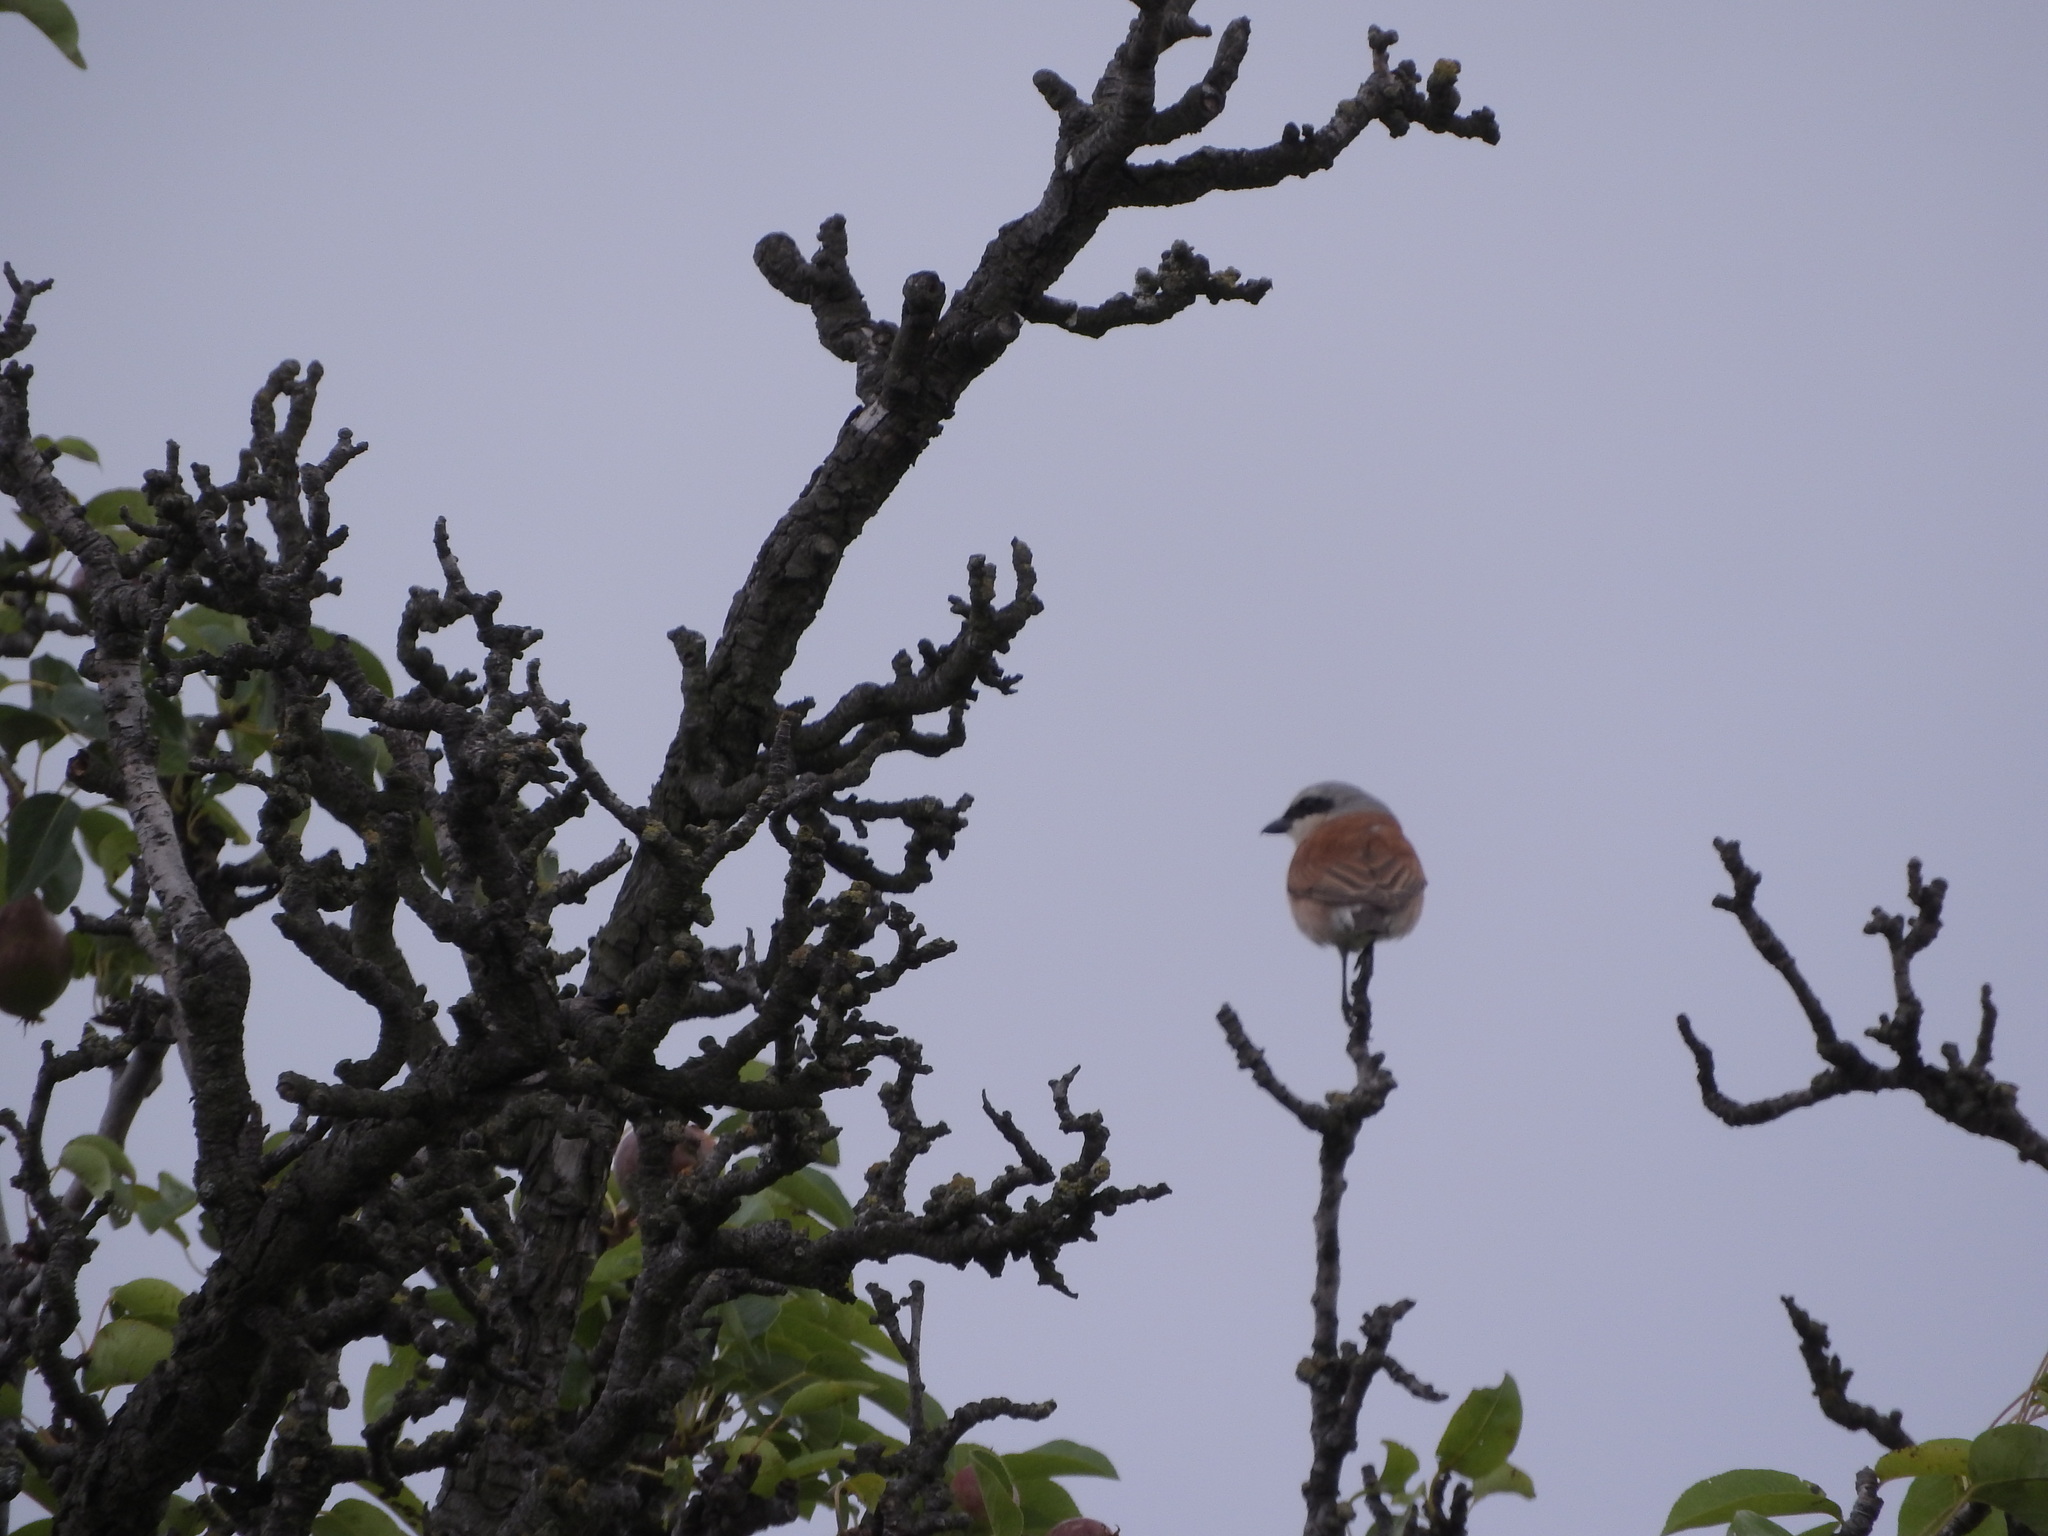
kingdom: Animalia
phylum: Chordata
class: Aves
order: Passeriformes
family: Laniidae
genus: Lanius
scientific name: Lanius collurio
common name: Red-backed shrike
